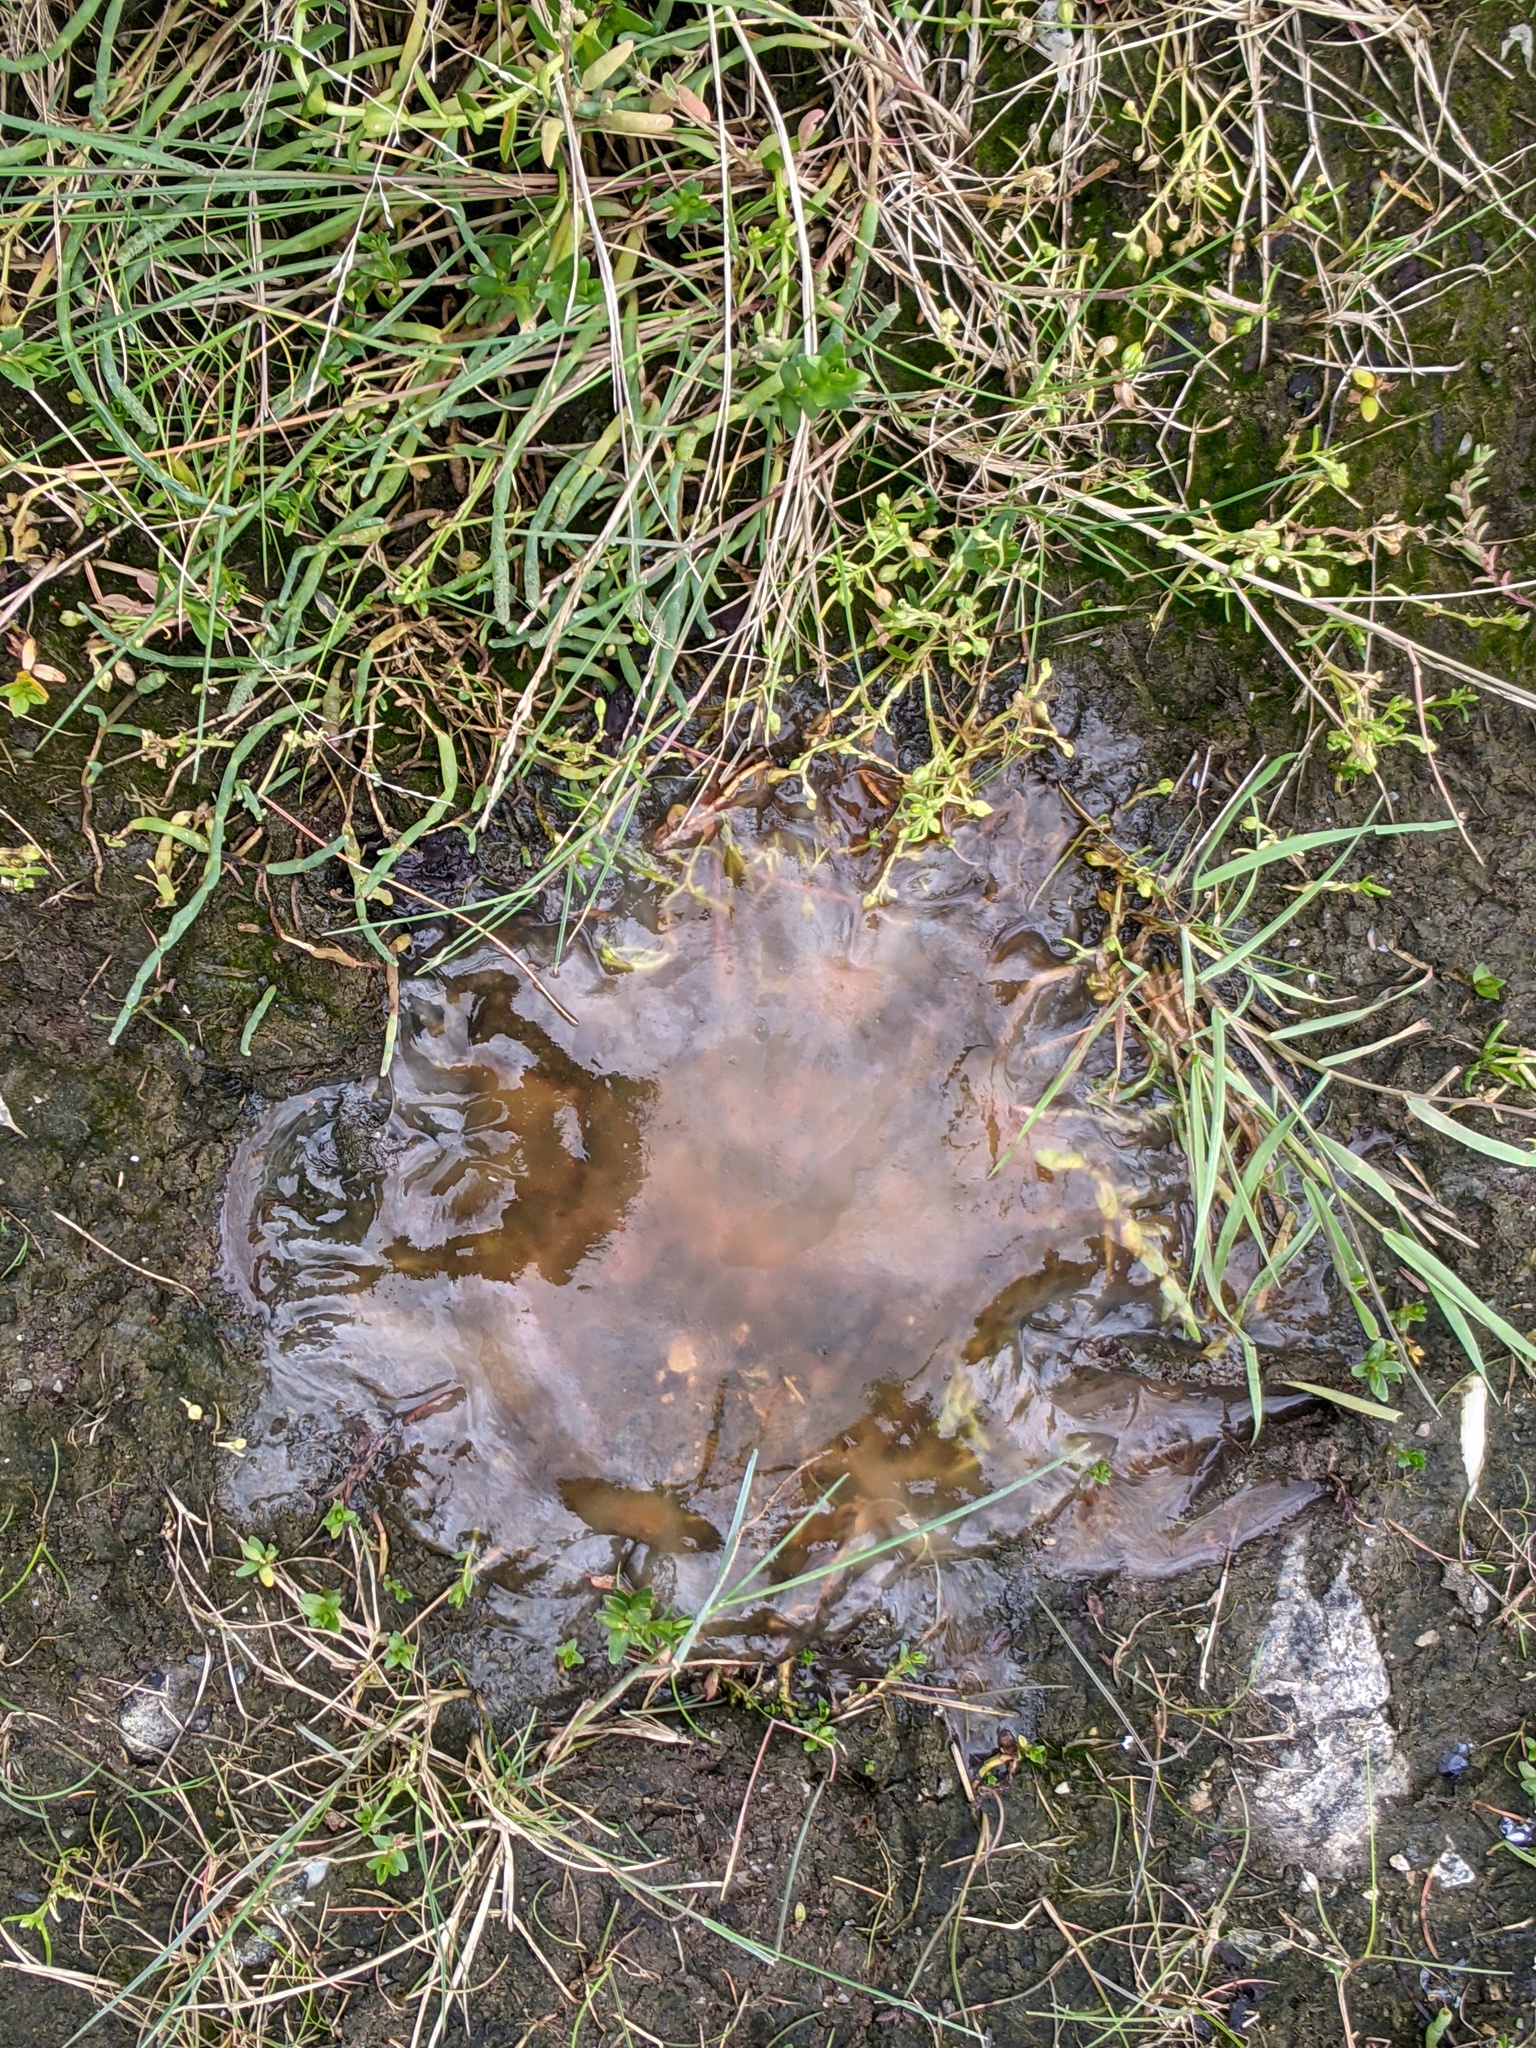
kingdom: Animalia
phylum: Cnidaria
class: Scyphozoa
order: Semaeostomeae
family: Cyaneidae
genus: Cyanea
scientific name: Cyanea ferruginea
